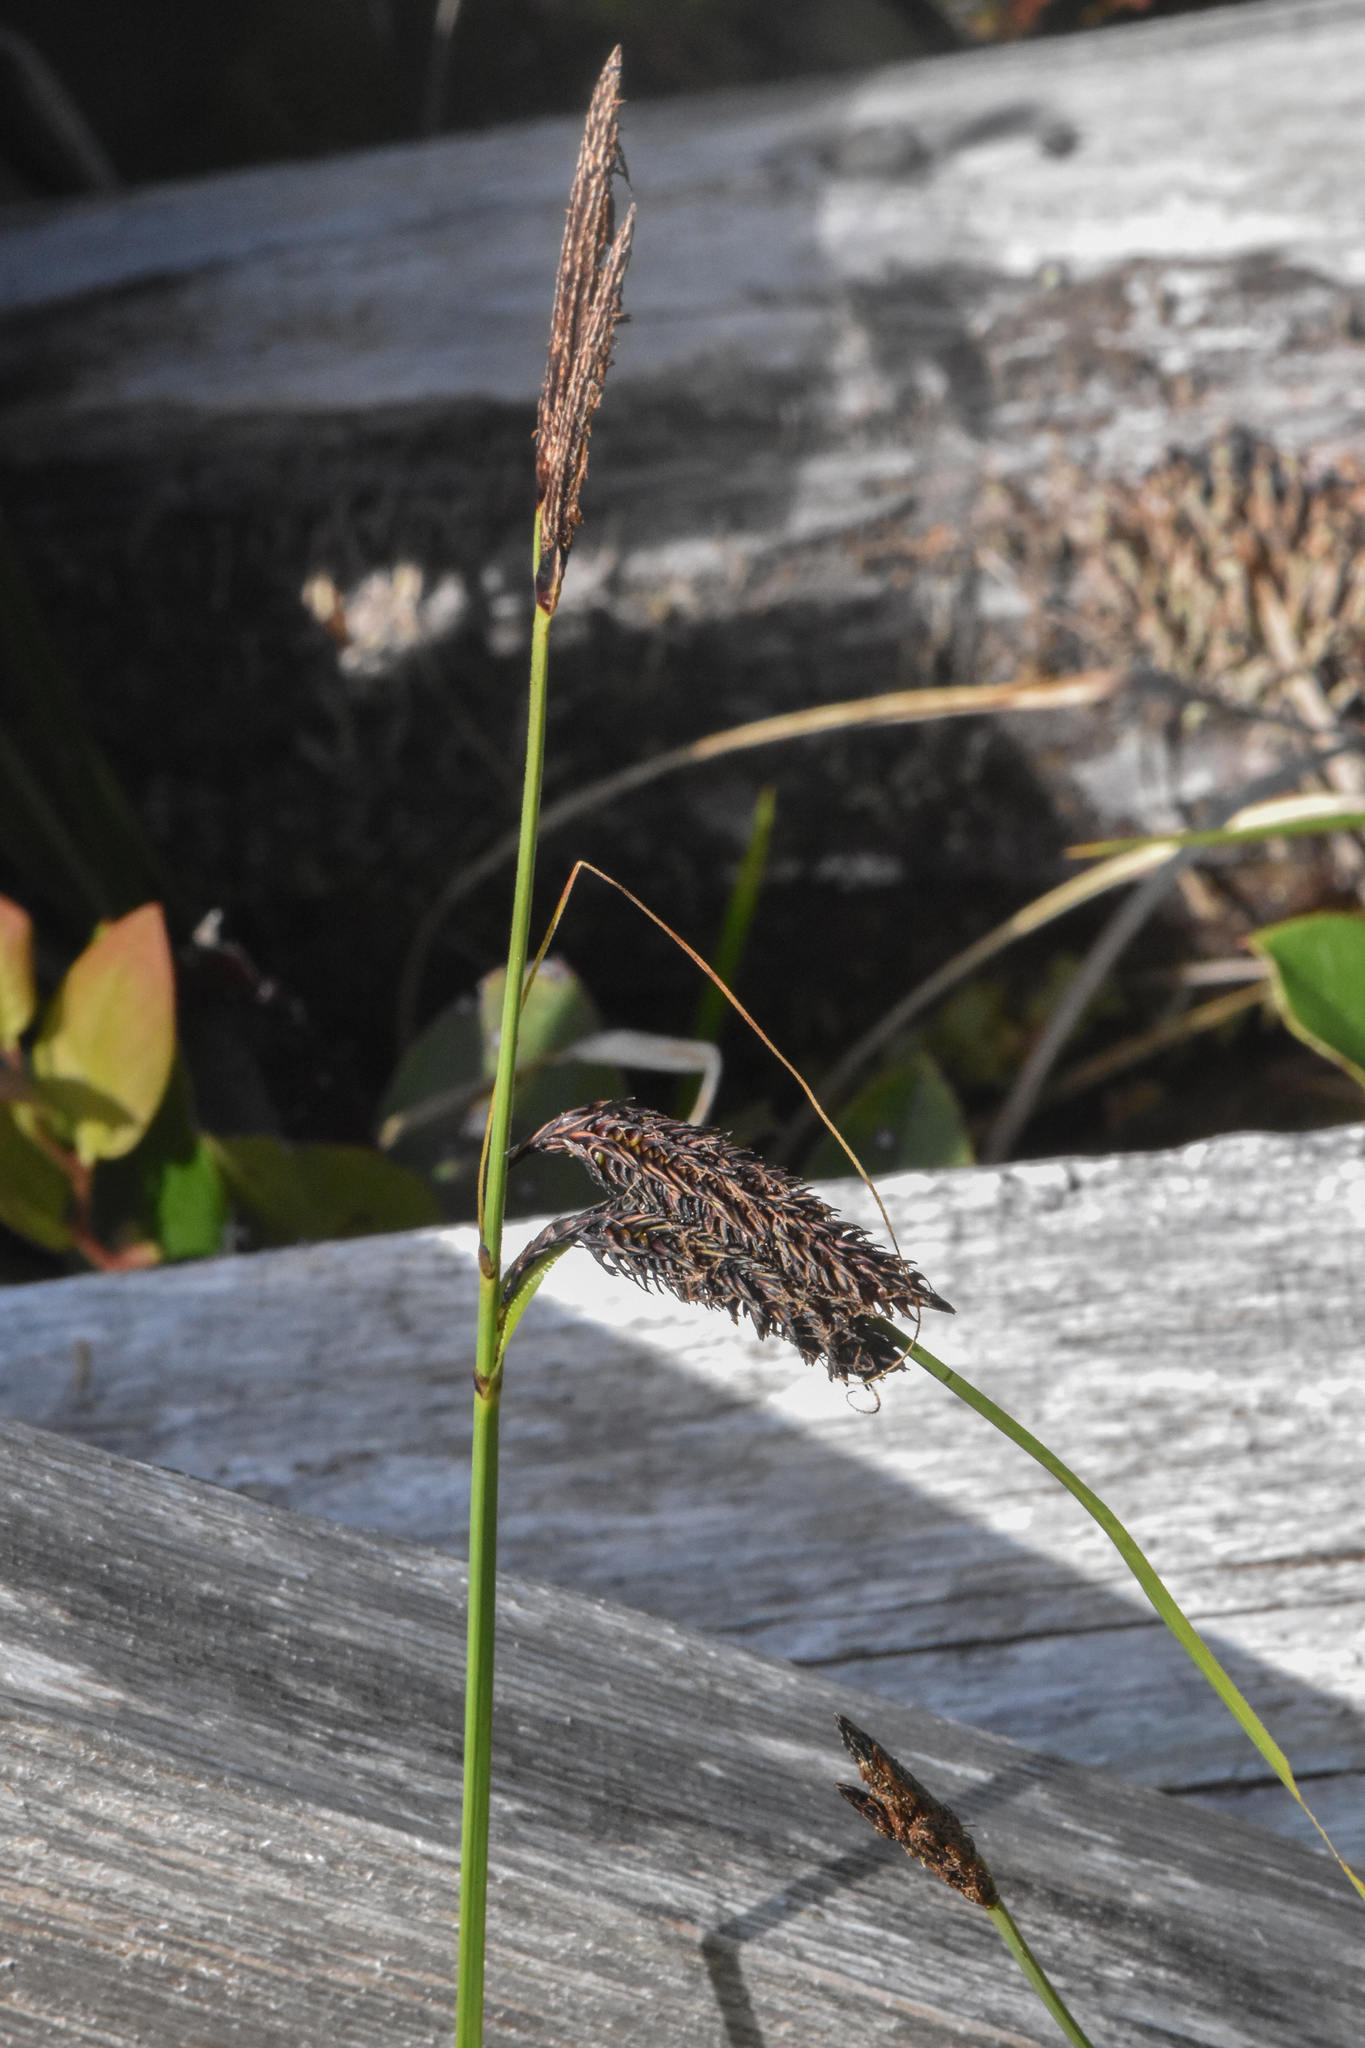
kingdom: Plantae
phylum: Tracheophyta
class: Liliopsida
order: Poales
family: Cyperaceae
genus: Carex
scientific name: Carex obnupta
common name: Slough sedge
